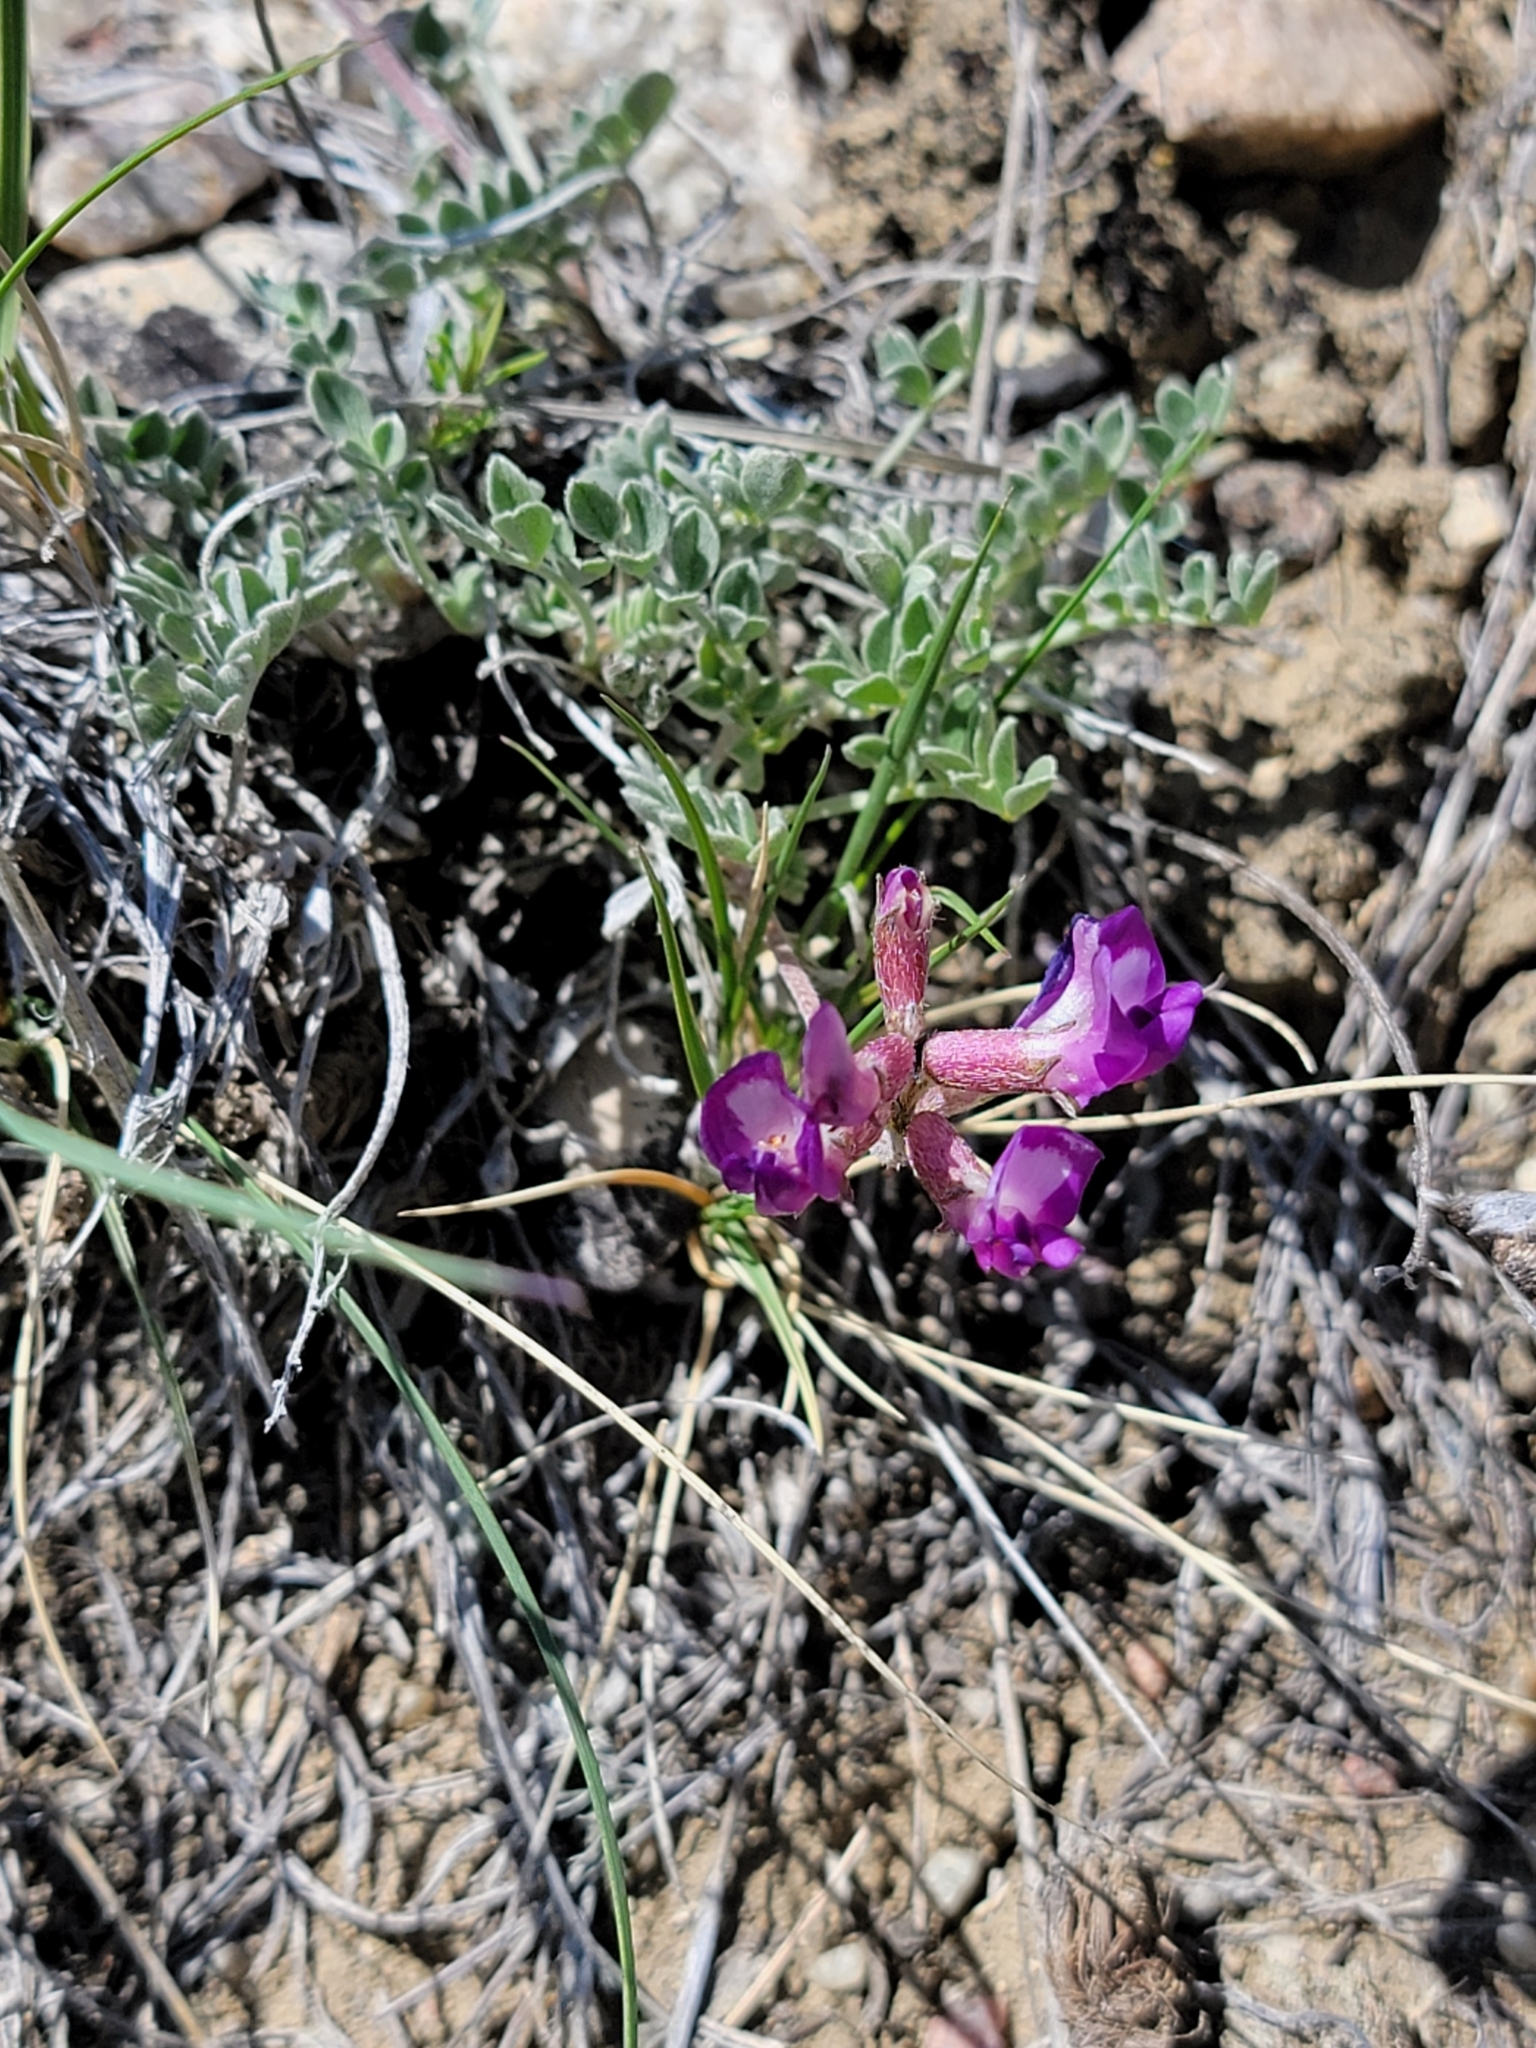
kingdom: Plantae
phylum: Tracheophyta
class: Magnoliopsida
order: Fabales
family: Fabaceae
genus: Astragalus
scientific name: Astragalus missouriensis
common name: Missouri milk-vetch
